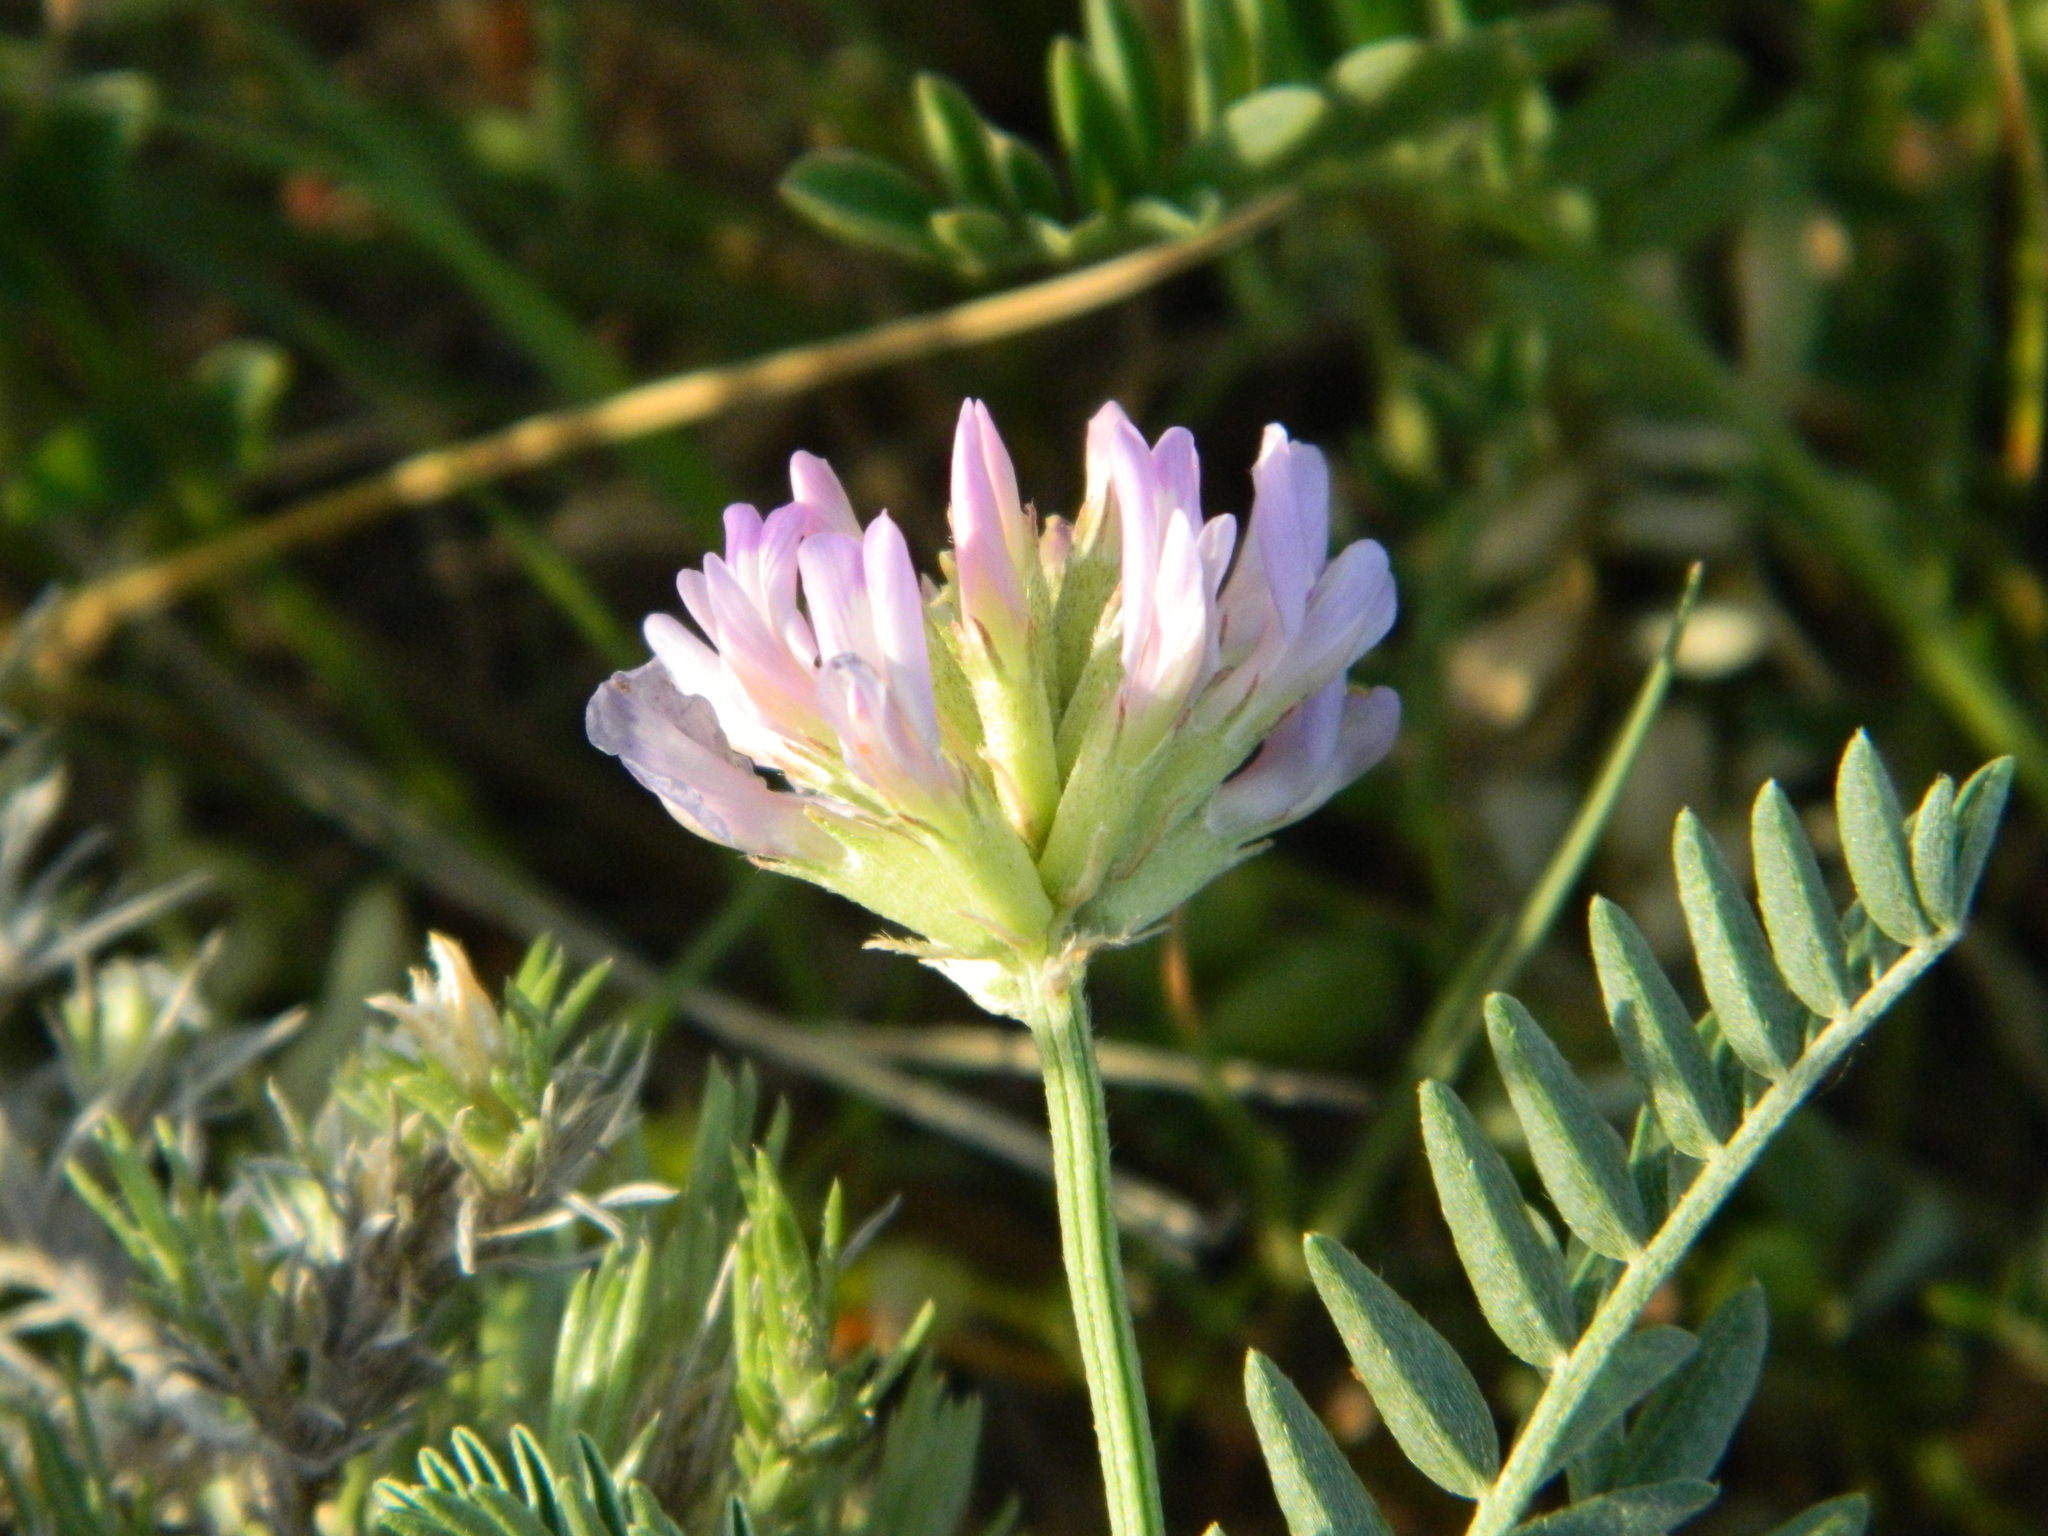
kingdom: Plantae
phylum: Tracheophyta
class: Magnoliopsida
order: Fabales
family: Fabaceae
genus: Astragalus
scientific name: Astragalus laxmannii
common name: Laxmann's milk-vetch
